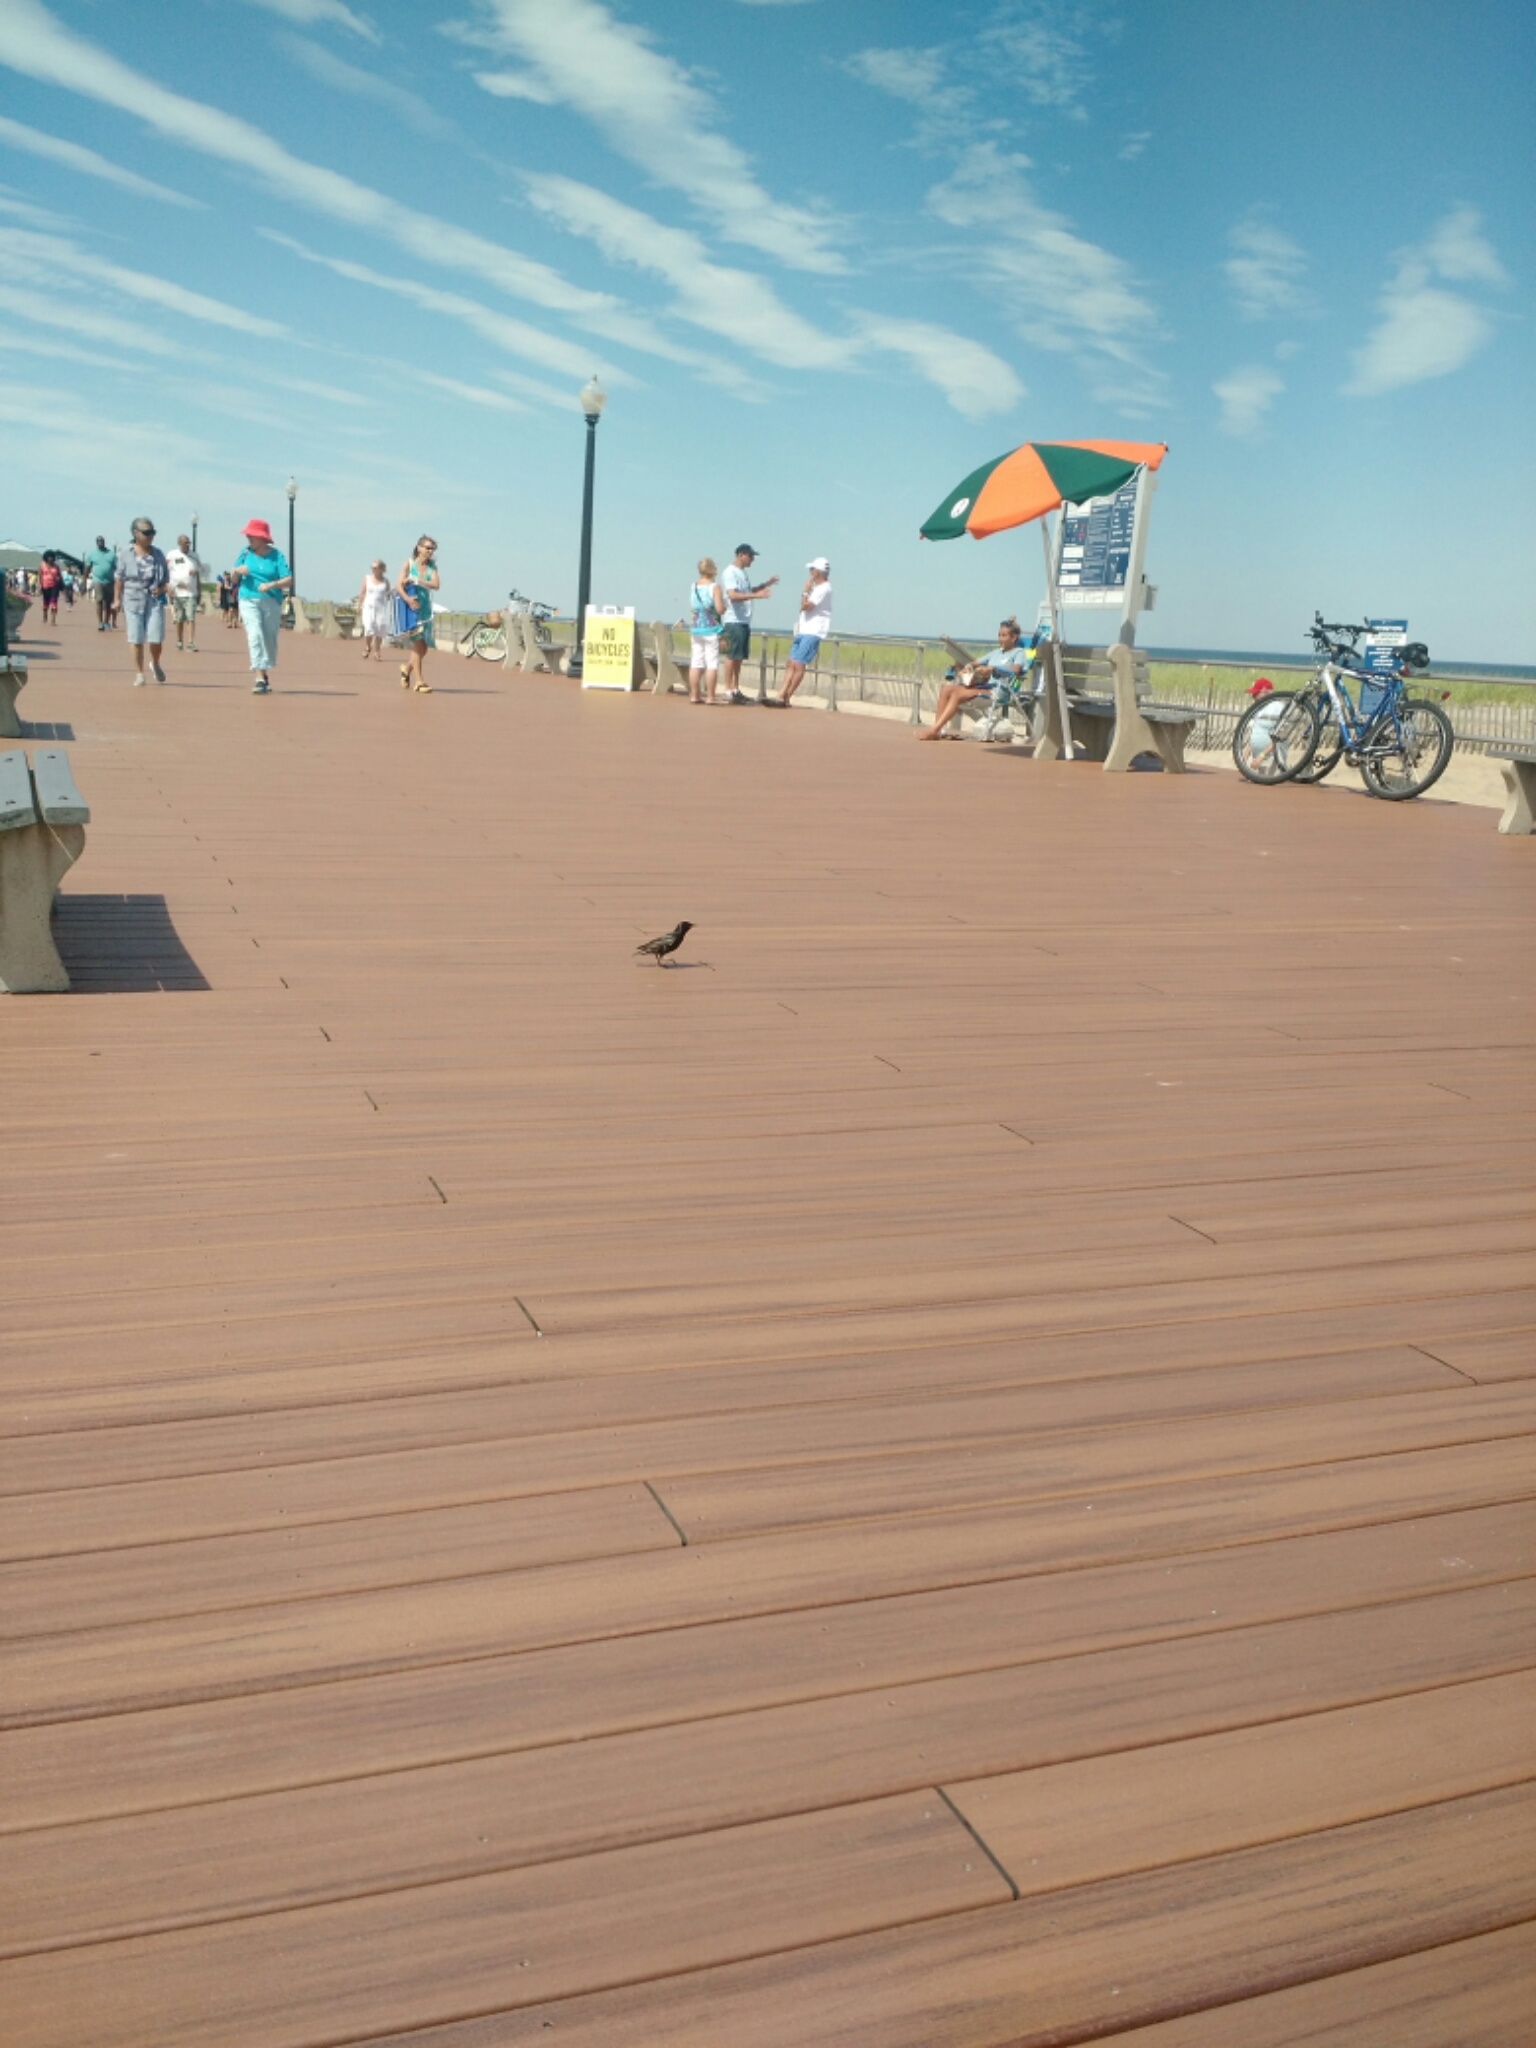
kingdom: Animalia
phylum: Chordata
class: Aves
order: Passeriformes
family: Sturnidae
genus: Sturnus
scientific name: Sturnus vulgaris
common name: Common starling
